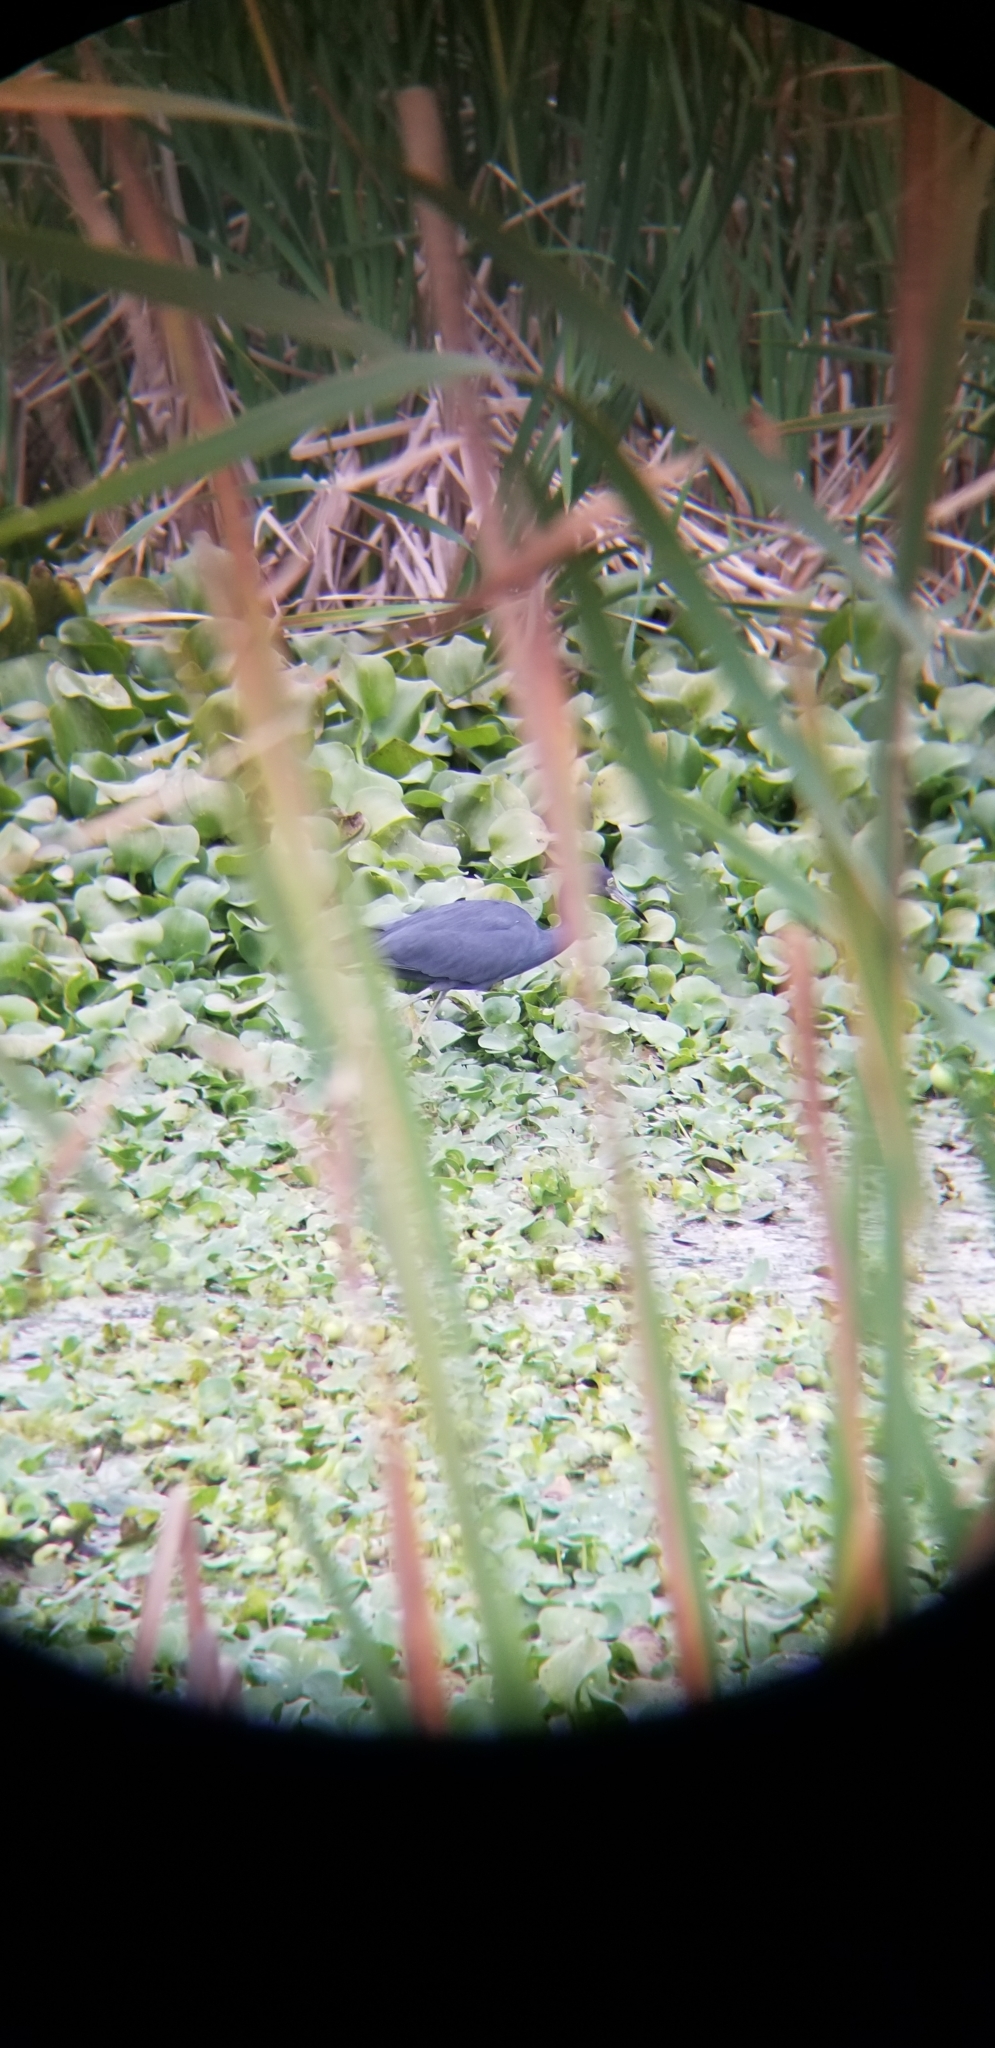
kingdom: Animalia
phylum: Chordata
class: Aves
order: Pelecaniformes
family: Ardeidae
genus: Egretta
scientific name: Egretta caerulea
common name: Little blue heron
